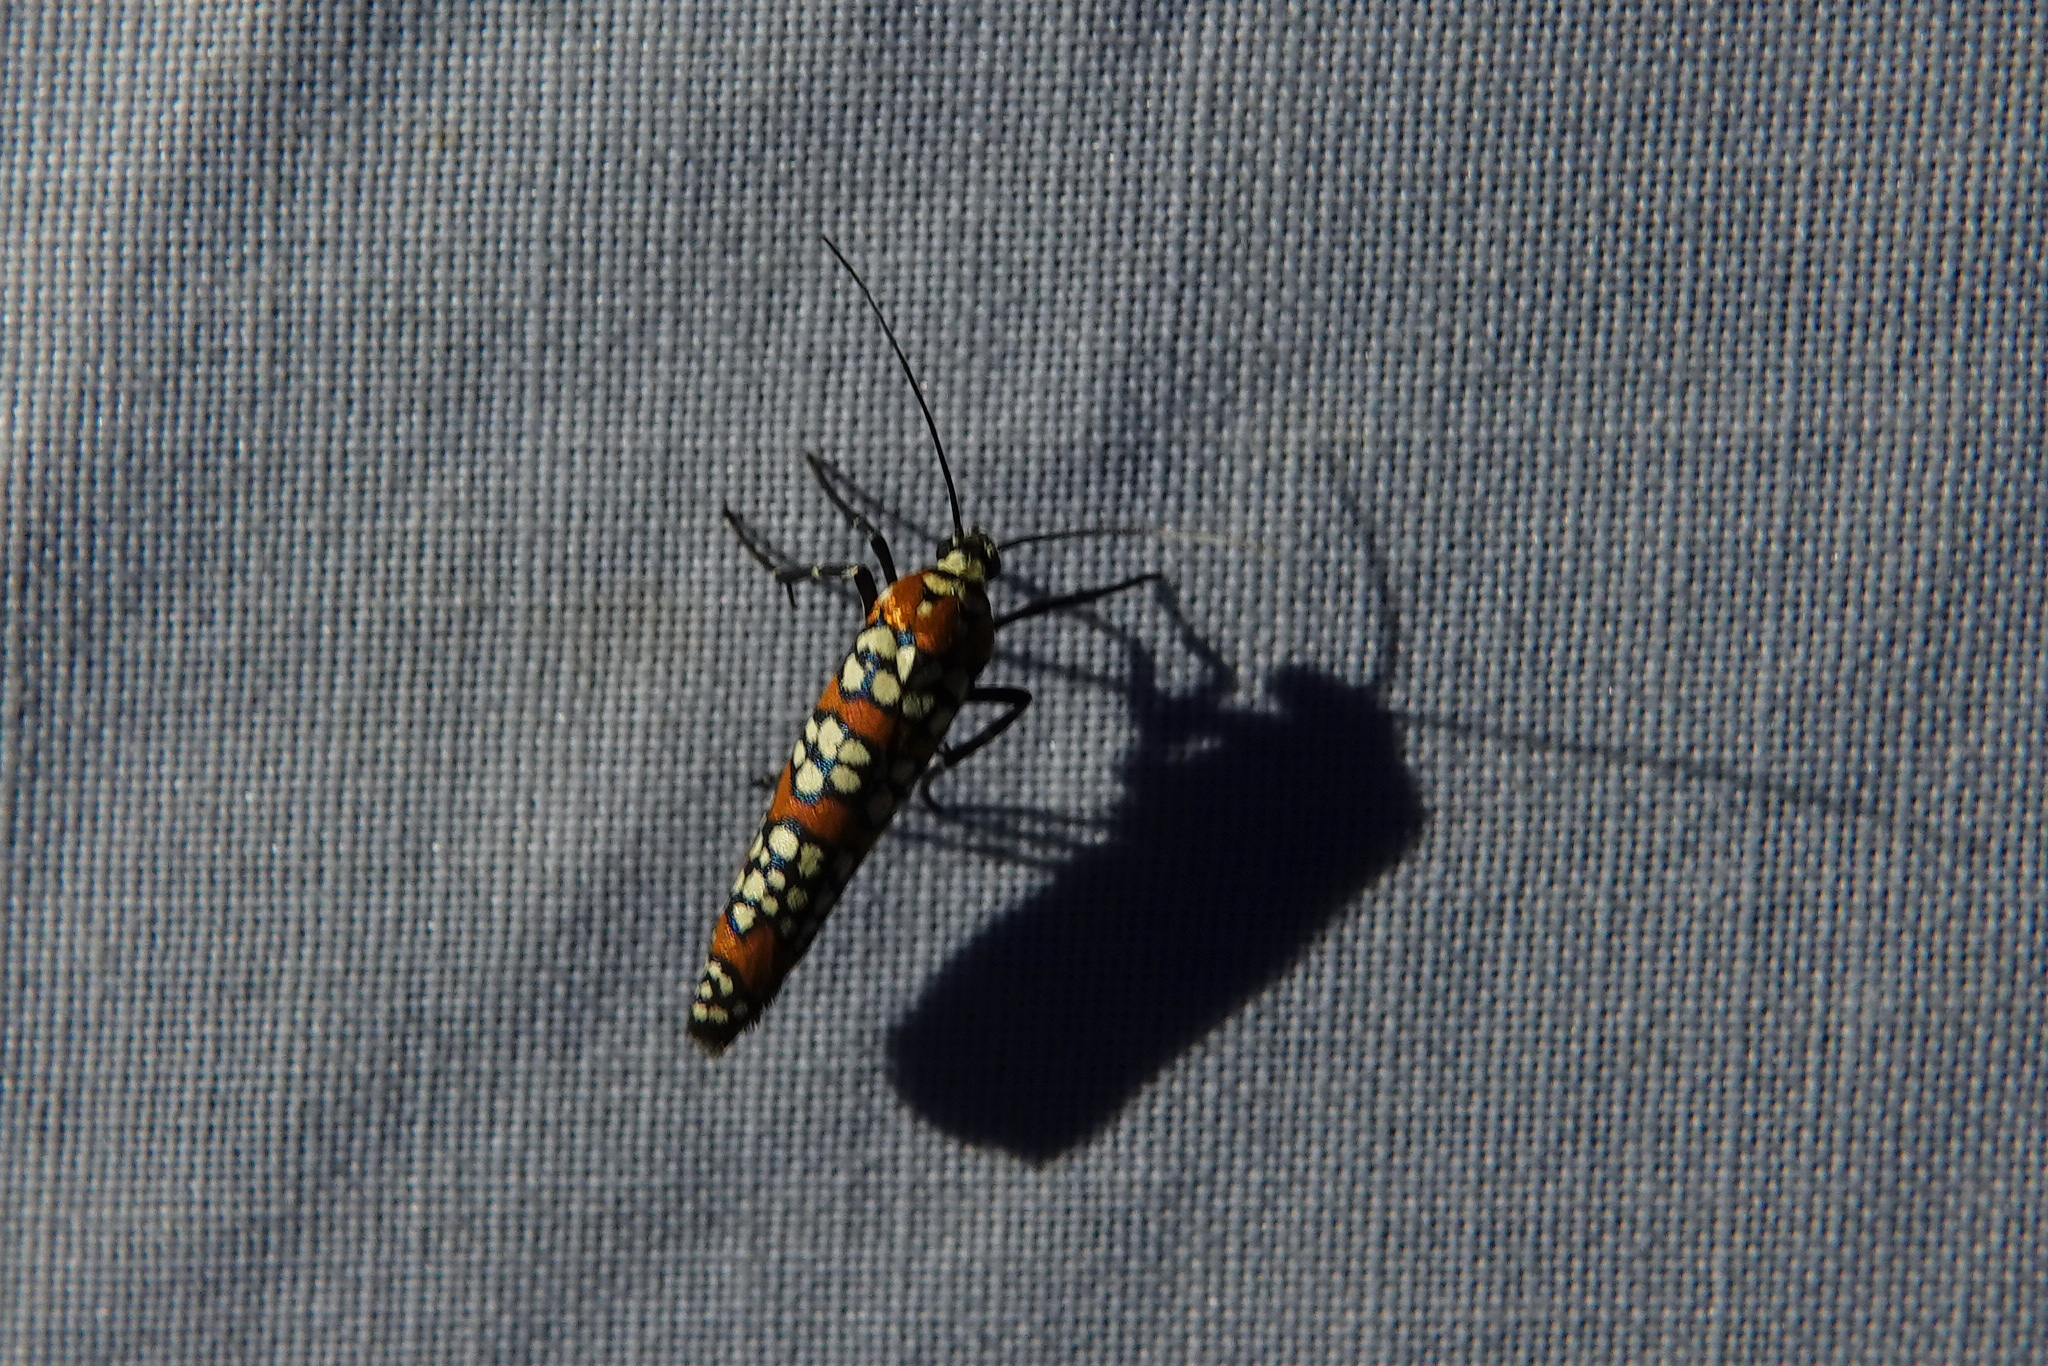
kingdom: Animalia
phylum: Arthropoda
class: Insecta
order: Lepidoptera
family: Attevidae
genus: Atteva
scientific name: Atteva punctella
